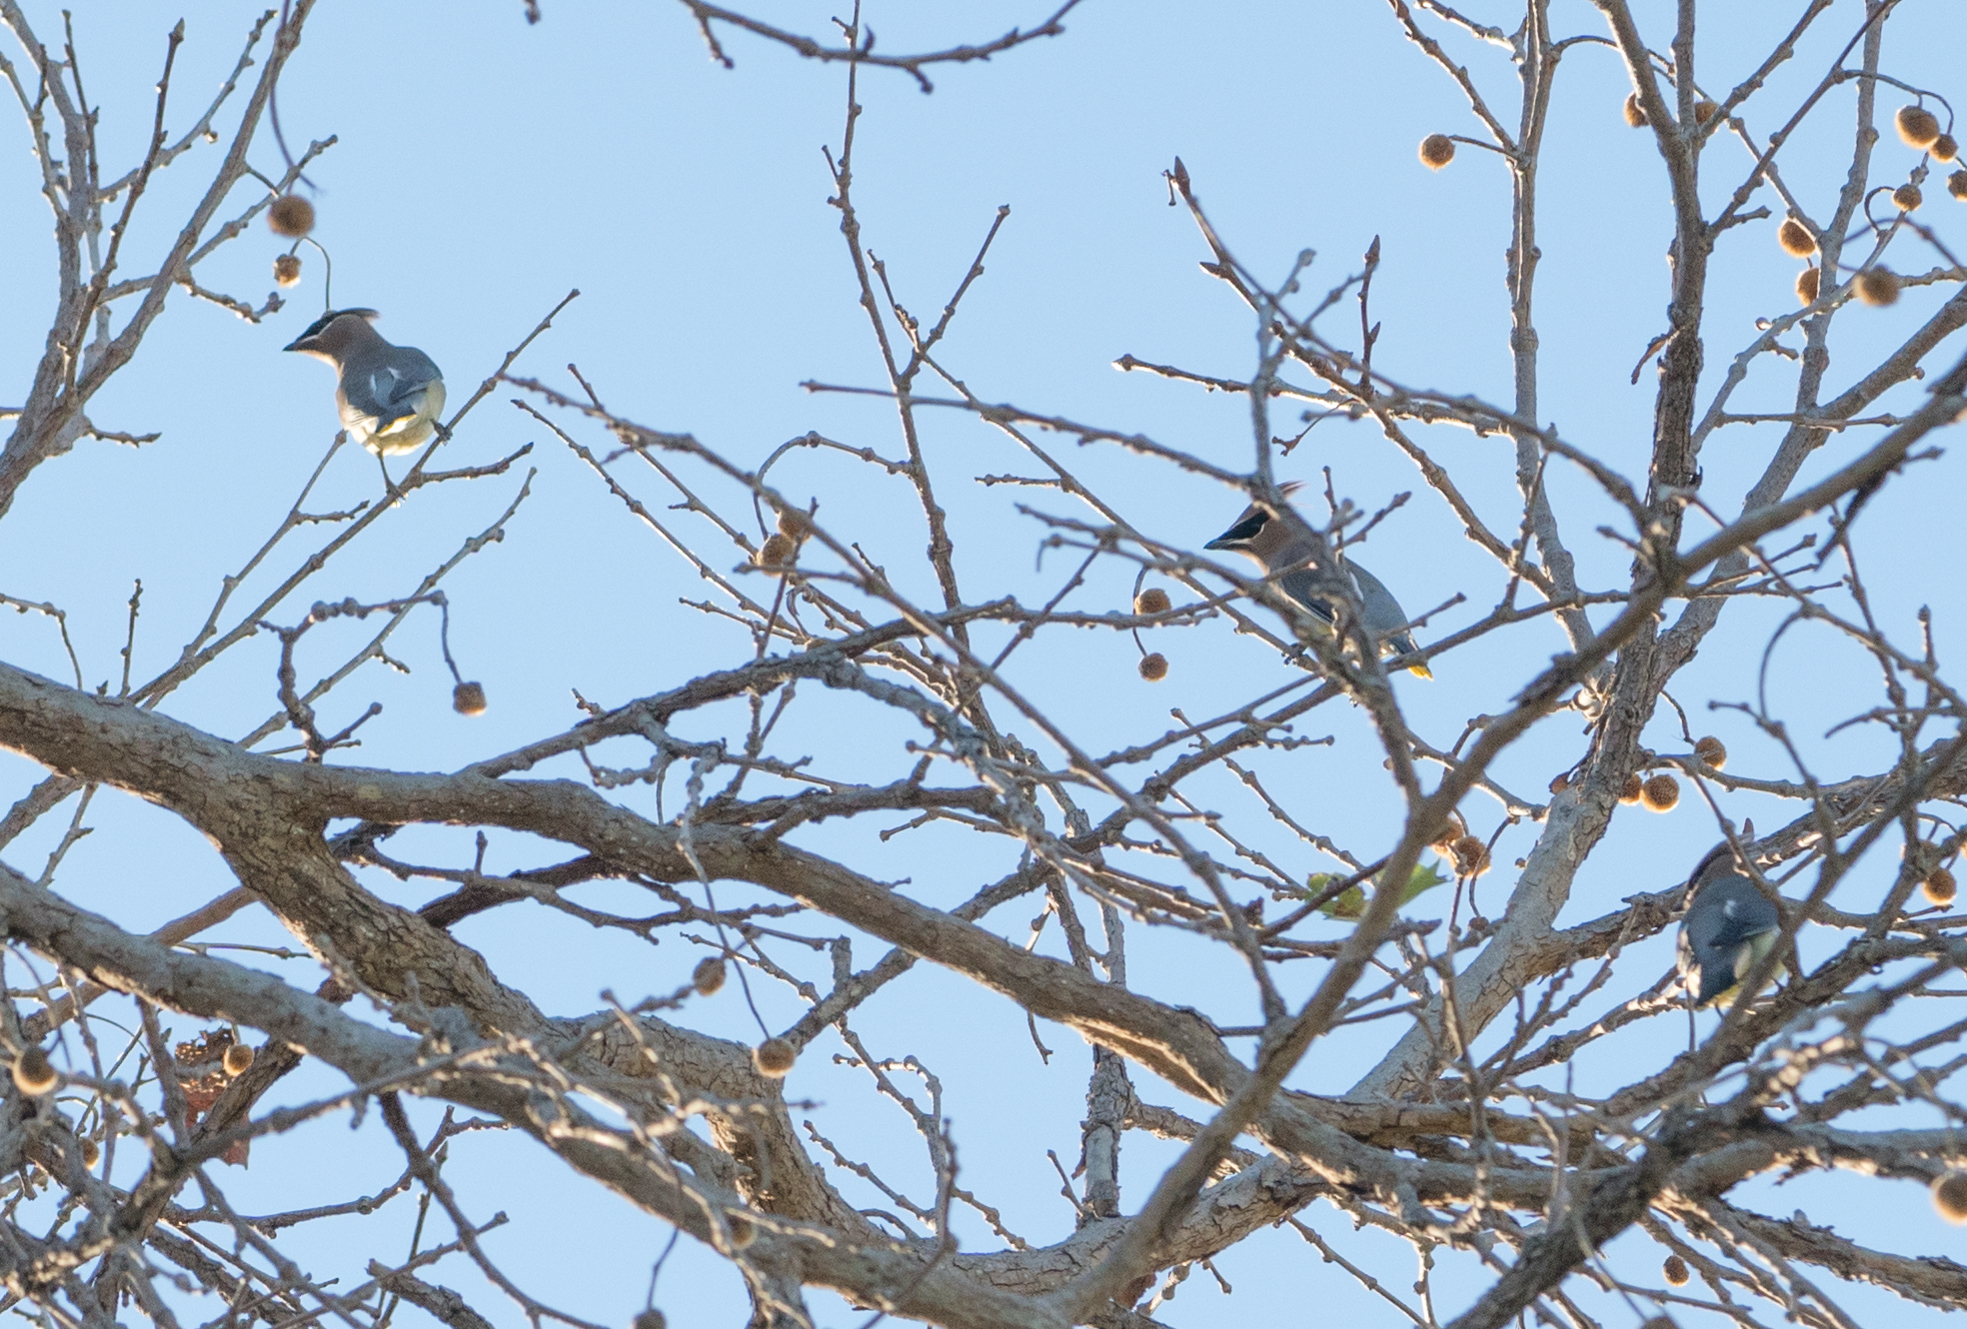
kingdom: Animalia
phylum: Chordata
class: Aves
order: Passeriformes
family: Bombycillidae
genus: Bombycilla
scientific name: Bombycilla cedrorum
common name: Cedar waxwing
